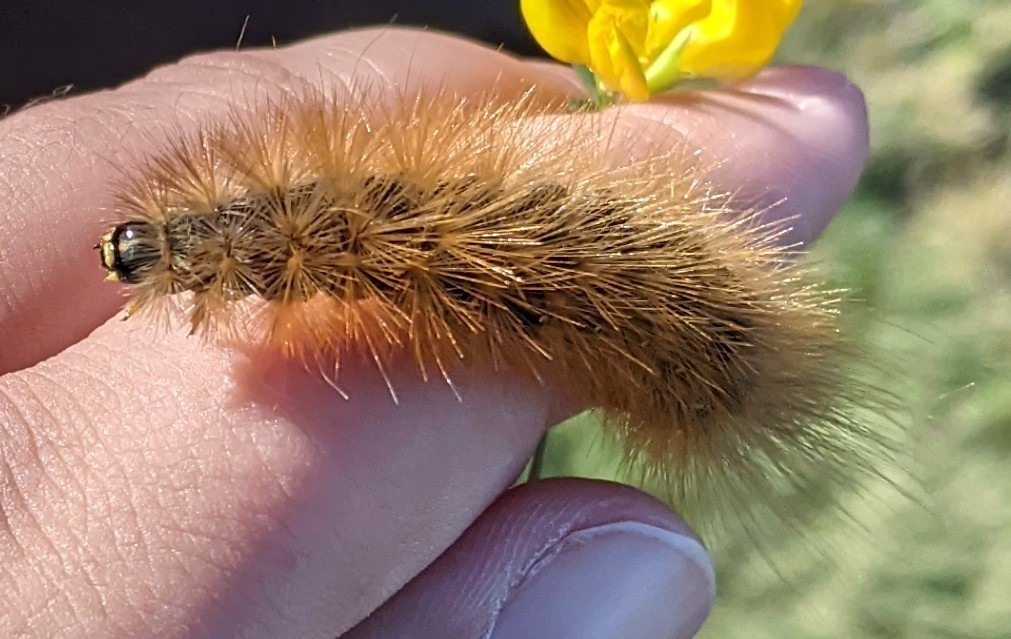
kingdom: Animalia
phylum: Arthropoda
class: Insecta
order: Lepidoptera
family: Erebidae
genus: Estigmene
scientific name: Estigmene acrea
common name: Salt marsh moth
